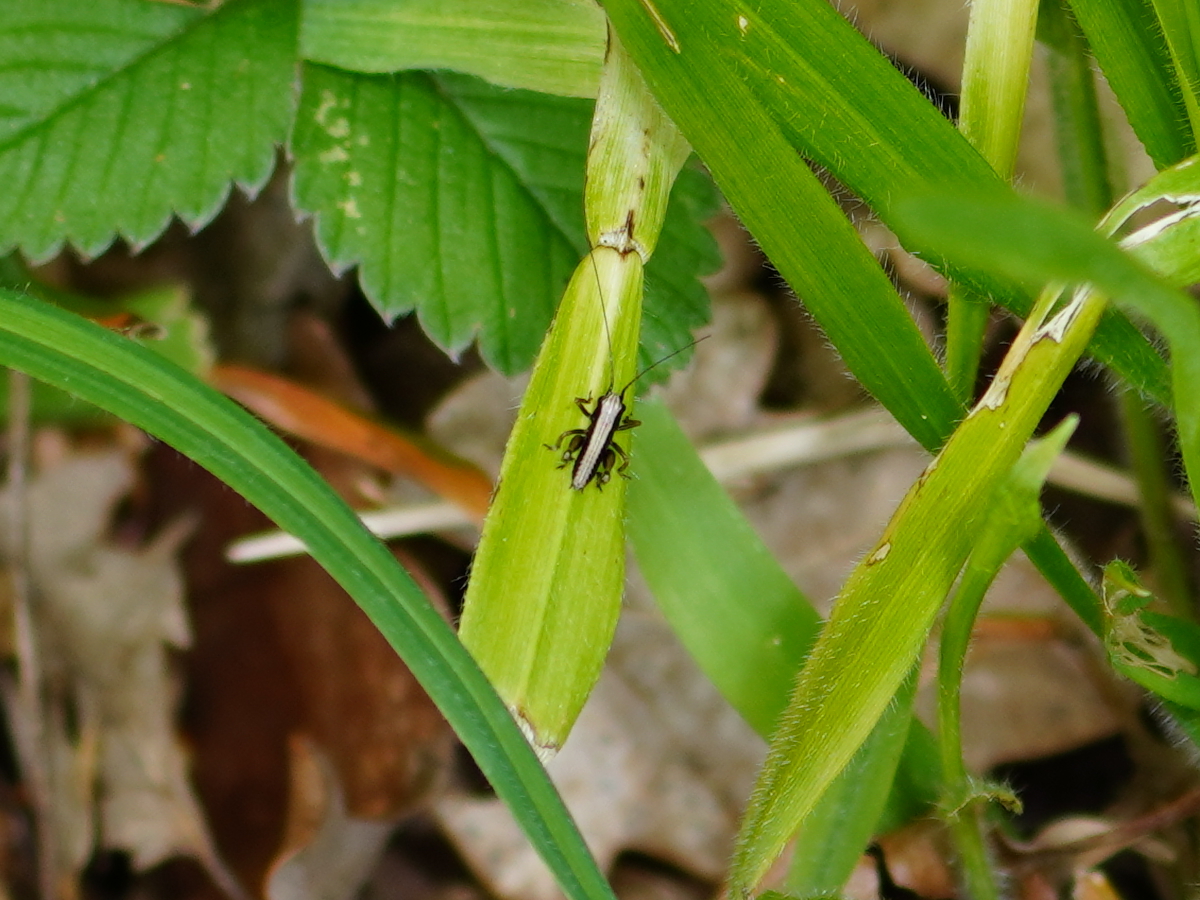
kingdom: Animalia
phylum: Arthropoda
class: Insecta
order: Orthoptera
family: Tettigoniidae
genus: Pholidoptera
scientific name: Pholidoptera griseoaptera
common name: Dark bush-cricket
